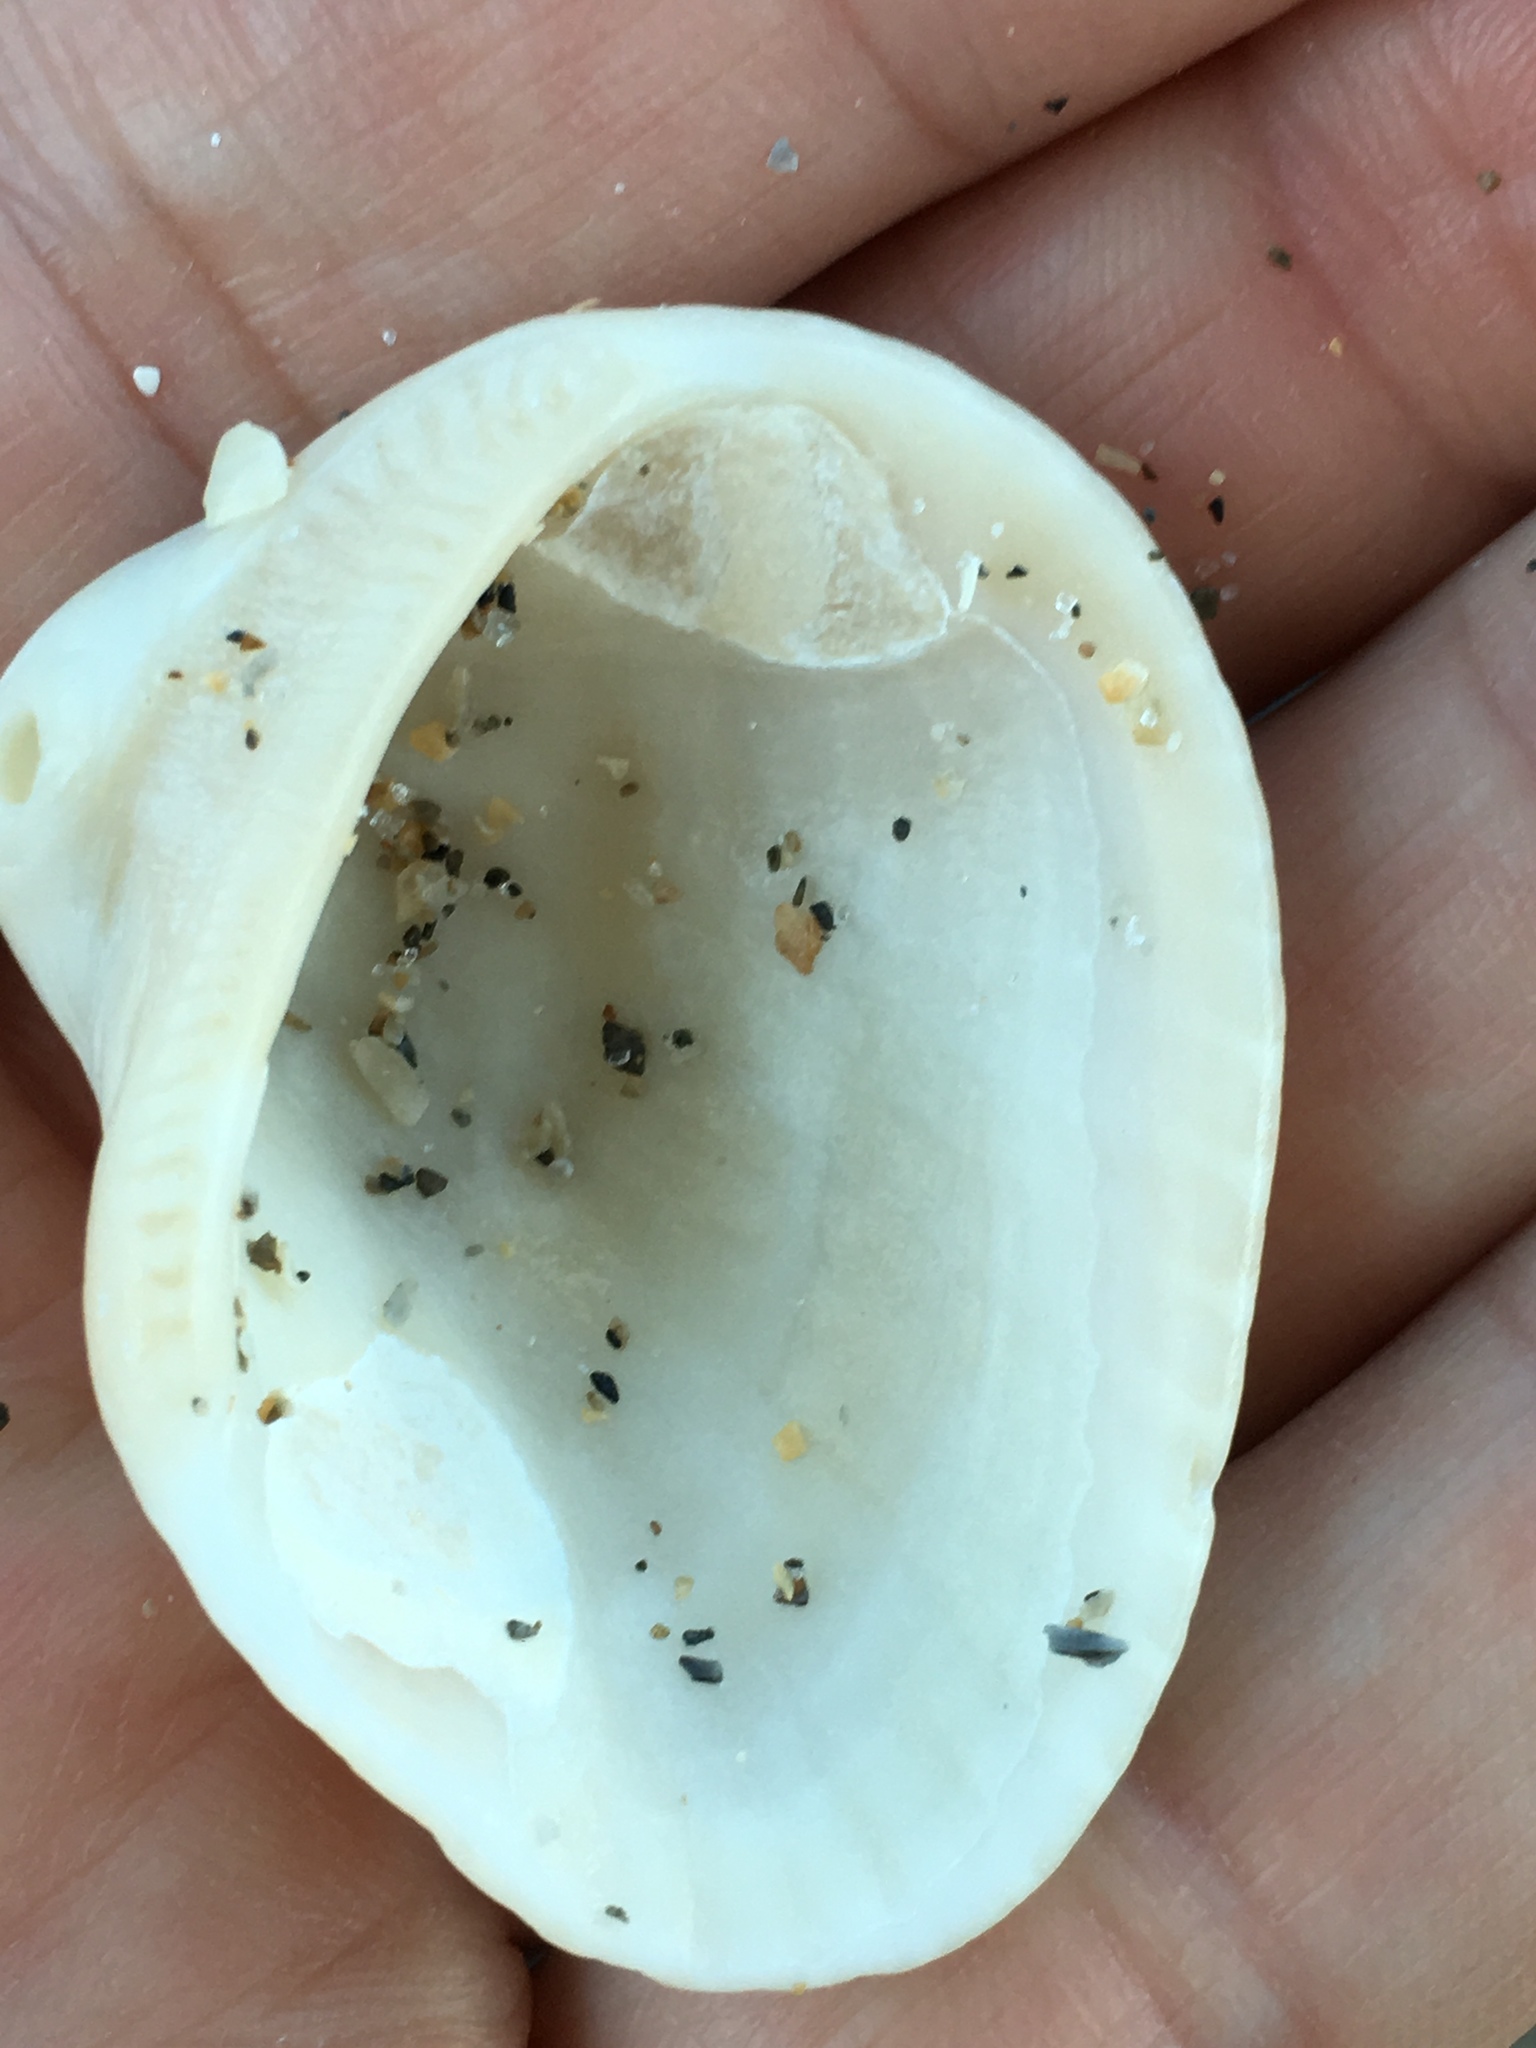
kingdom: Animalia
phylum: Mollusca
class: Bivalvia
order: Arcida
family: Noetiidae
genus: Noetia
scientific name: Noetia ponderosa
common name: Ponderous ark
